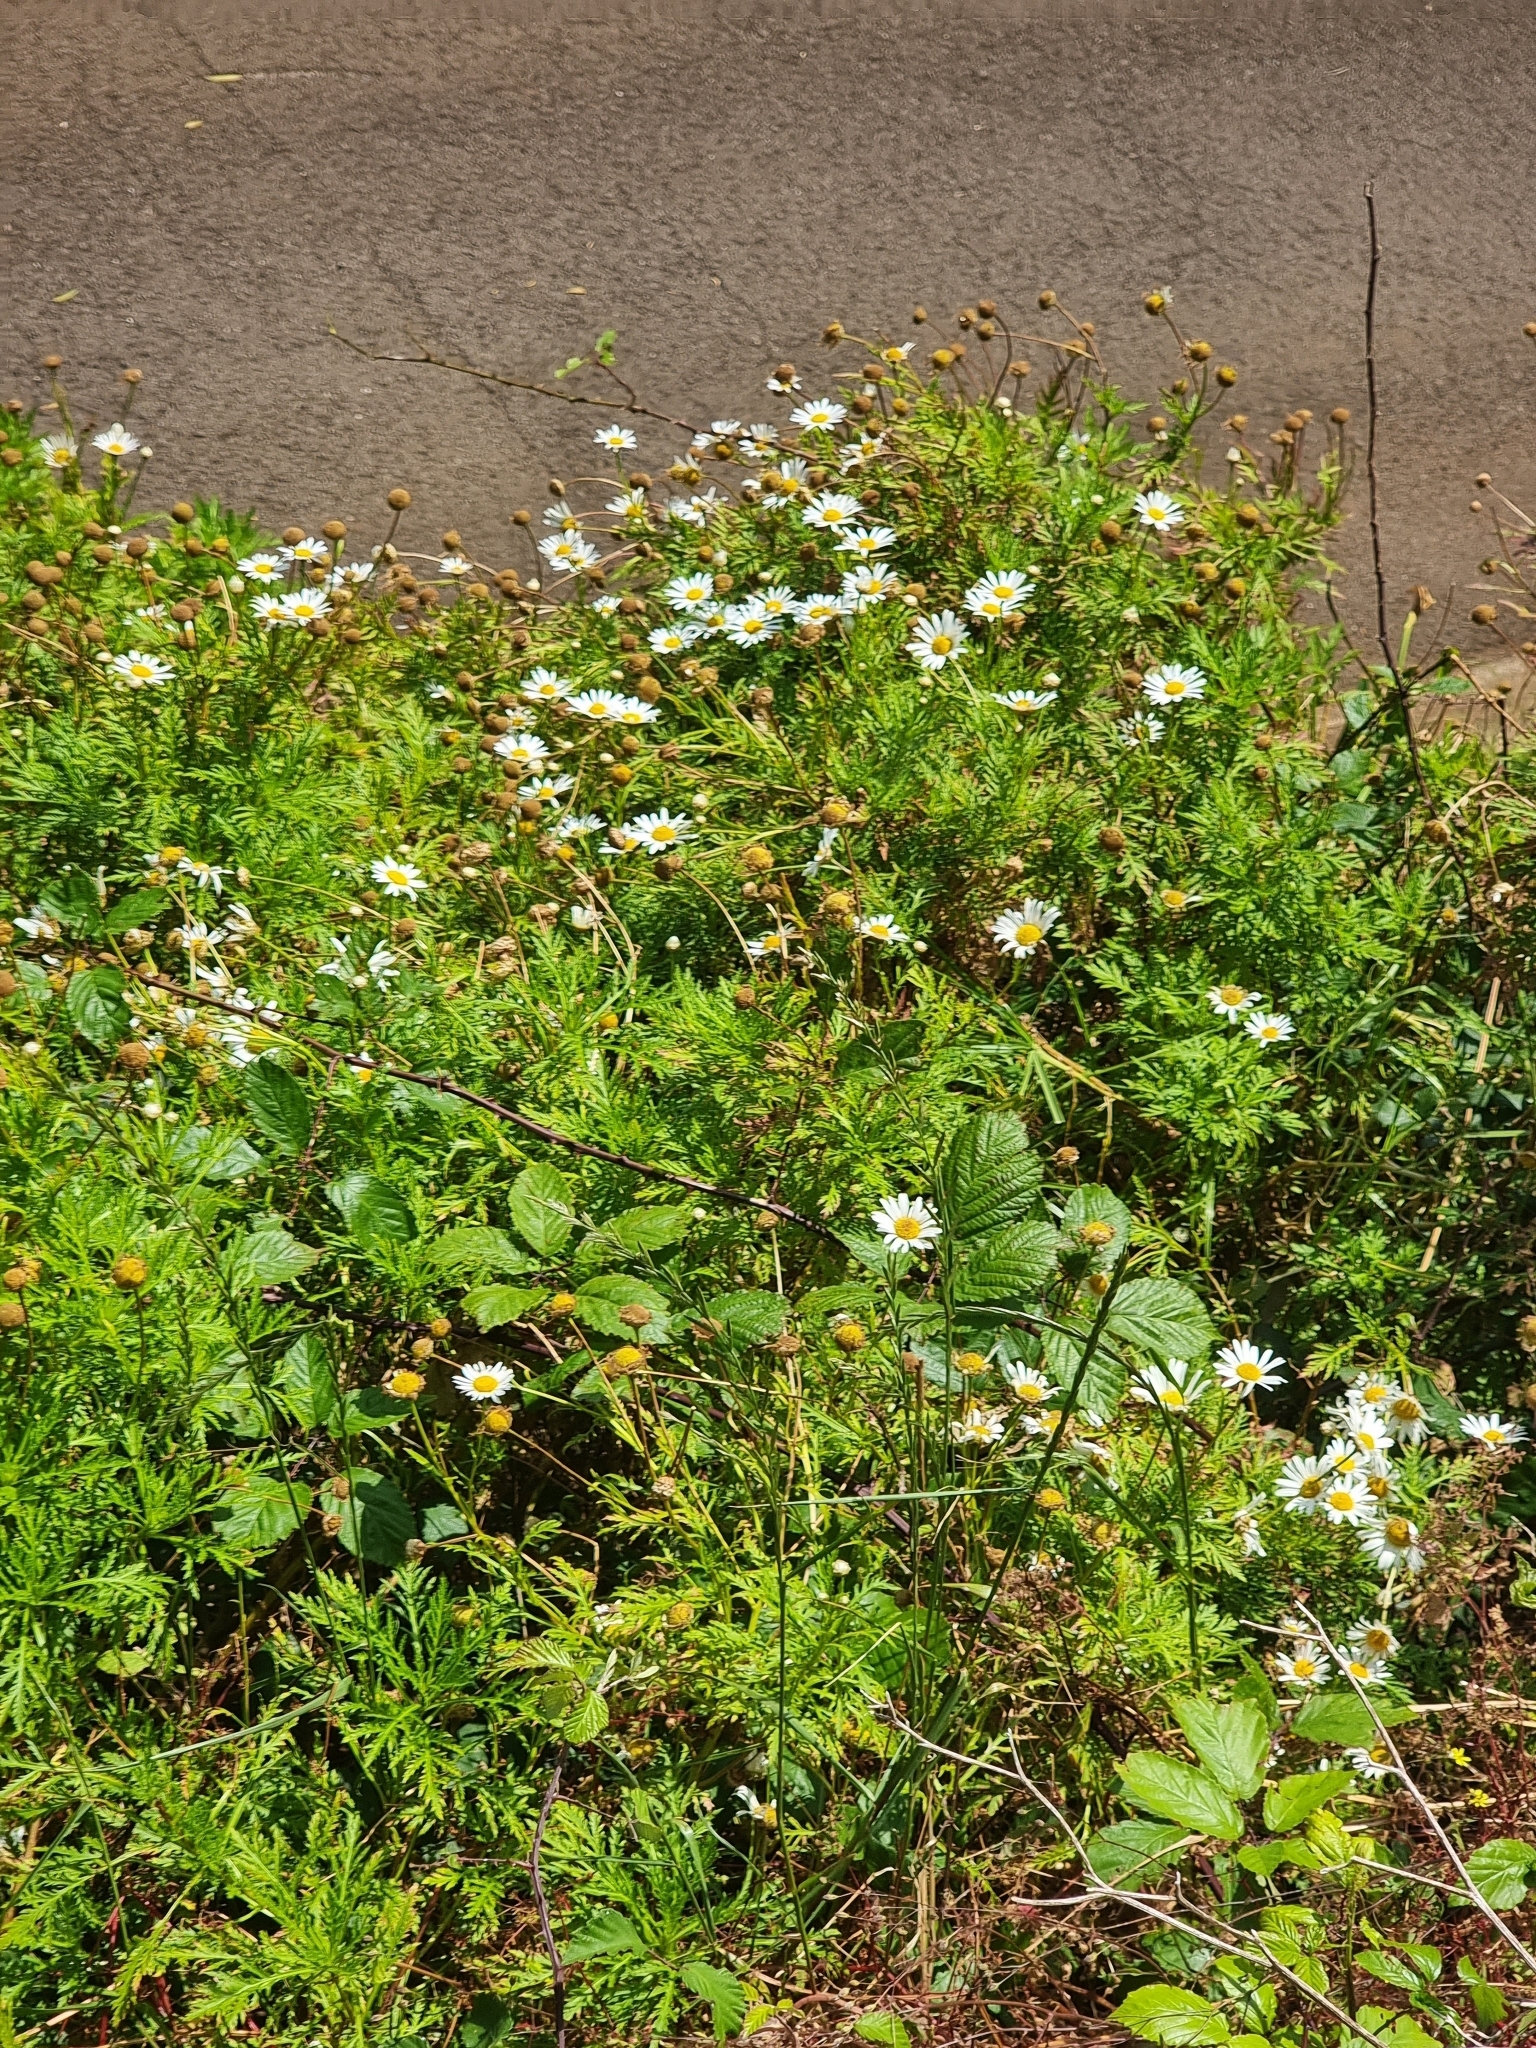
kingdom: Plantae
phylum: Tracheophyta
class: Magnoliopsida
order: Asterales
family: Asteraceae
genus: Argyranthemum
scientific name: Argyranthemum dissectum
